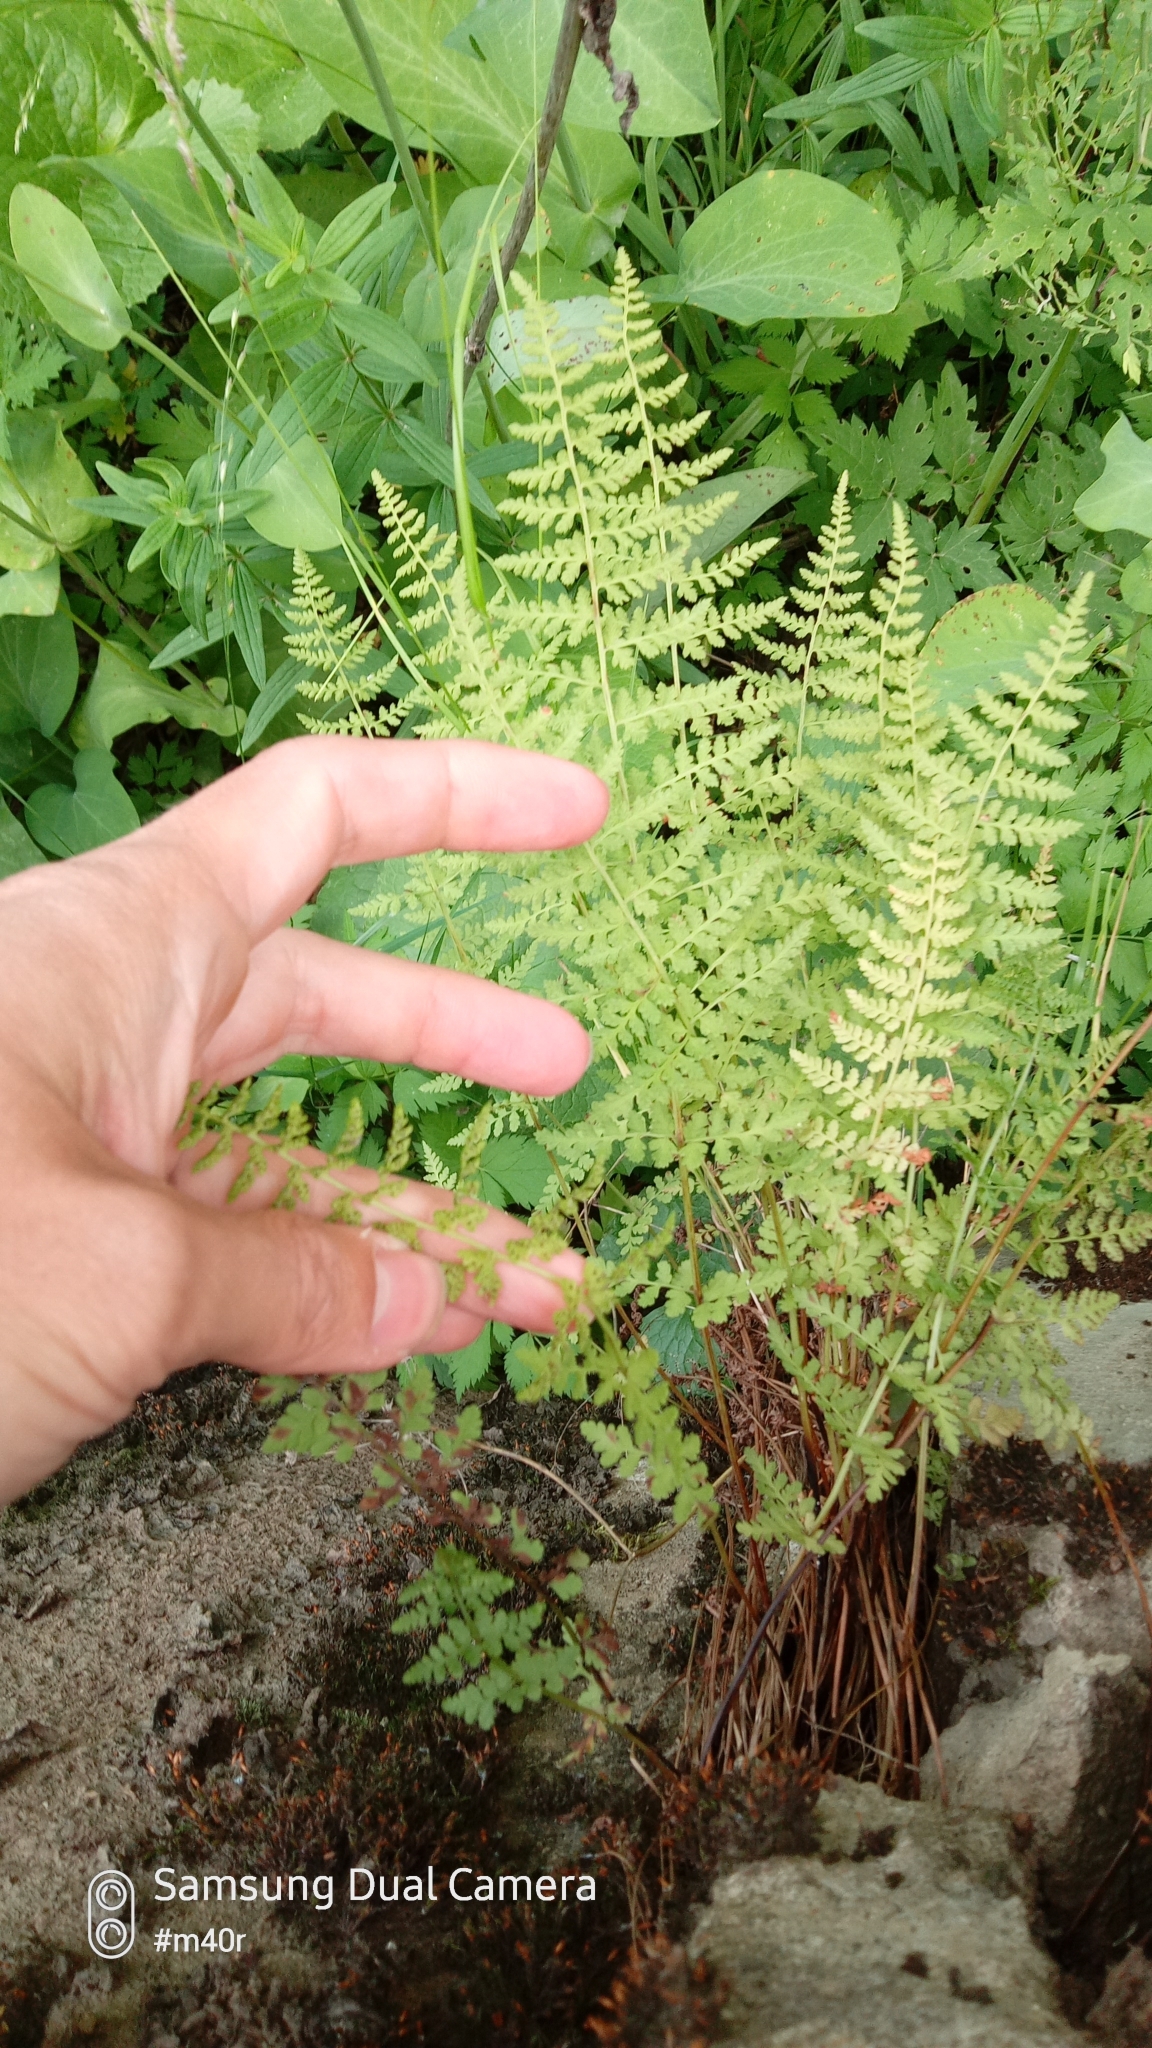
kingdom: Plantae
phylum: Tracheophyta
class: Polypodiopsida
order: Polypodiales
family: Cystopteridaceae
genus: Cystopteris
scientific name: Cystopteris fragilis
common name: Brittle bladder fern
